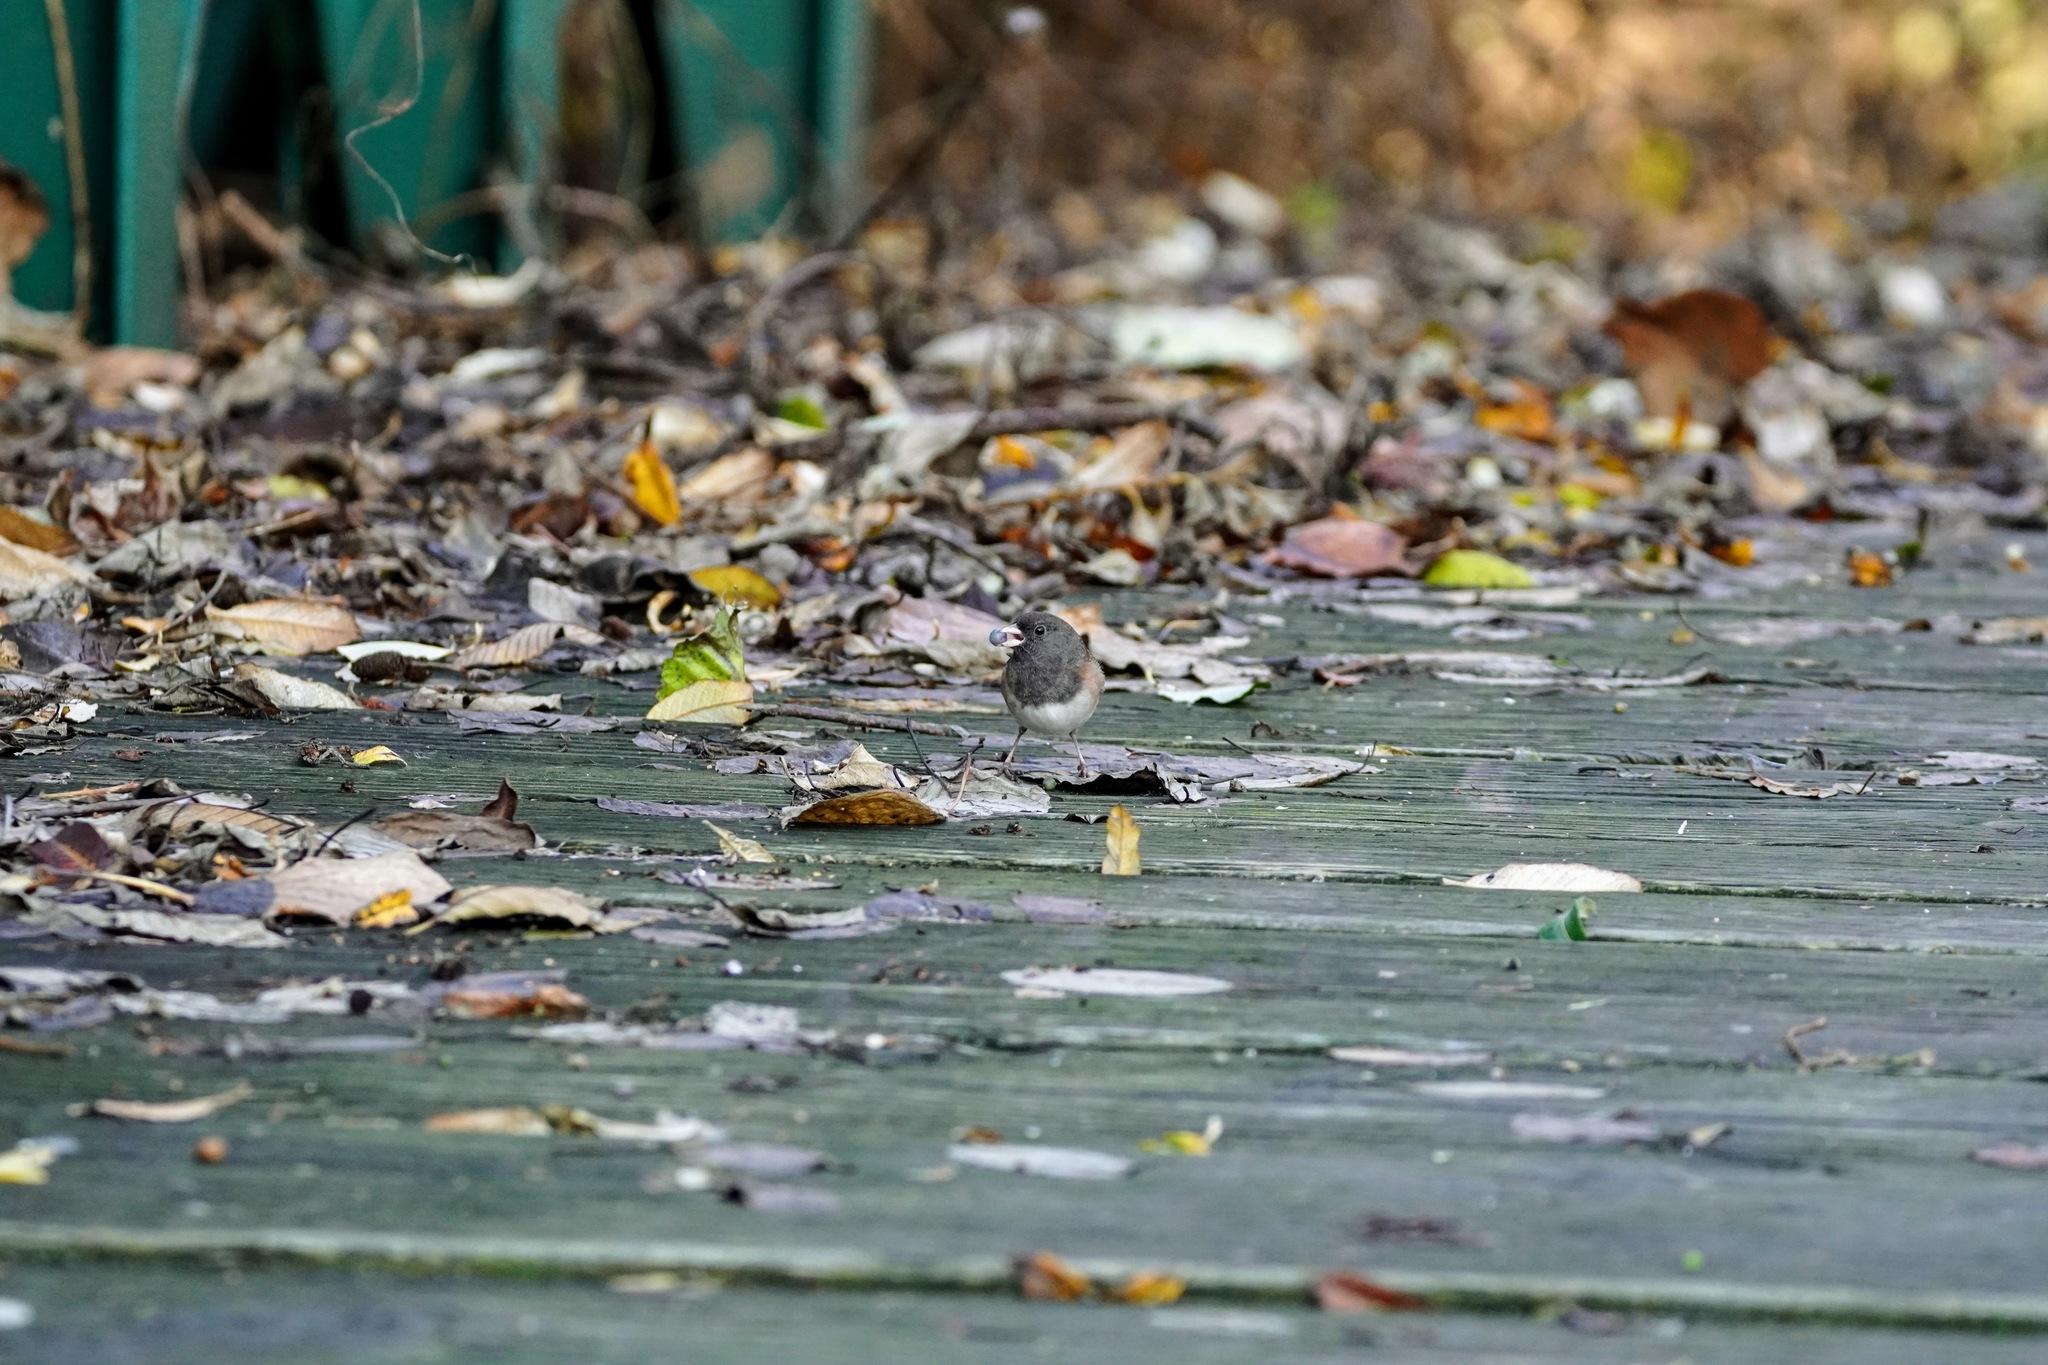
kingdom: Animalia
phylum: Chordata
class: Aves
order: Passeriformes
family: Passerellidae
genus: Junco
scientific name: Junco hyemalis
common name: Dark-eyed junco
